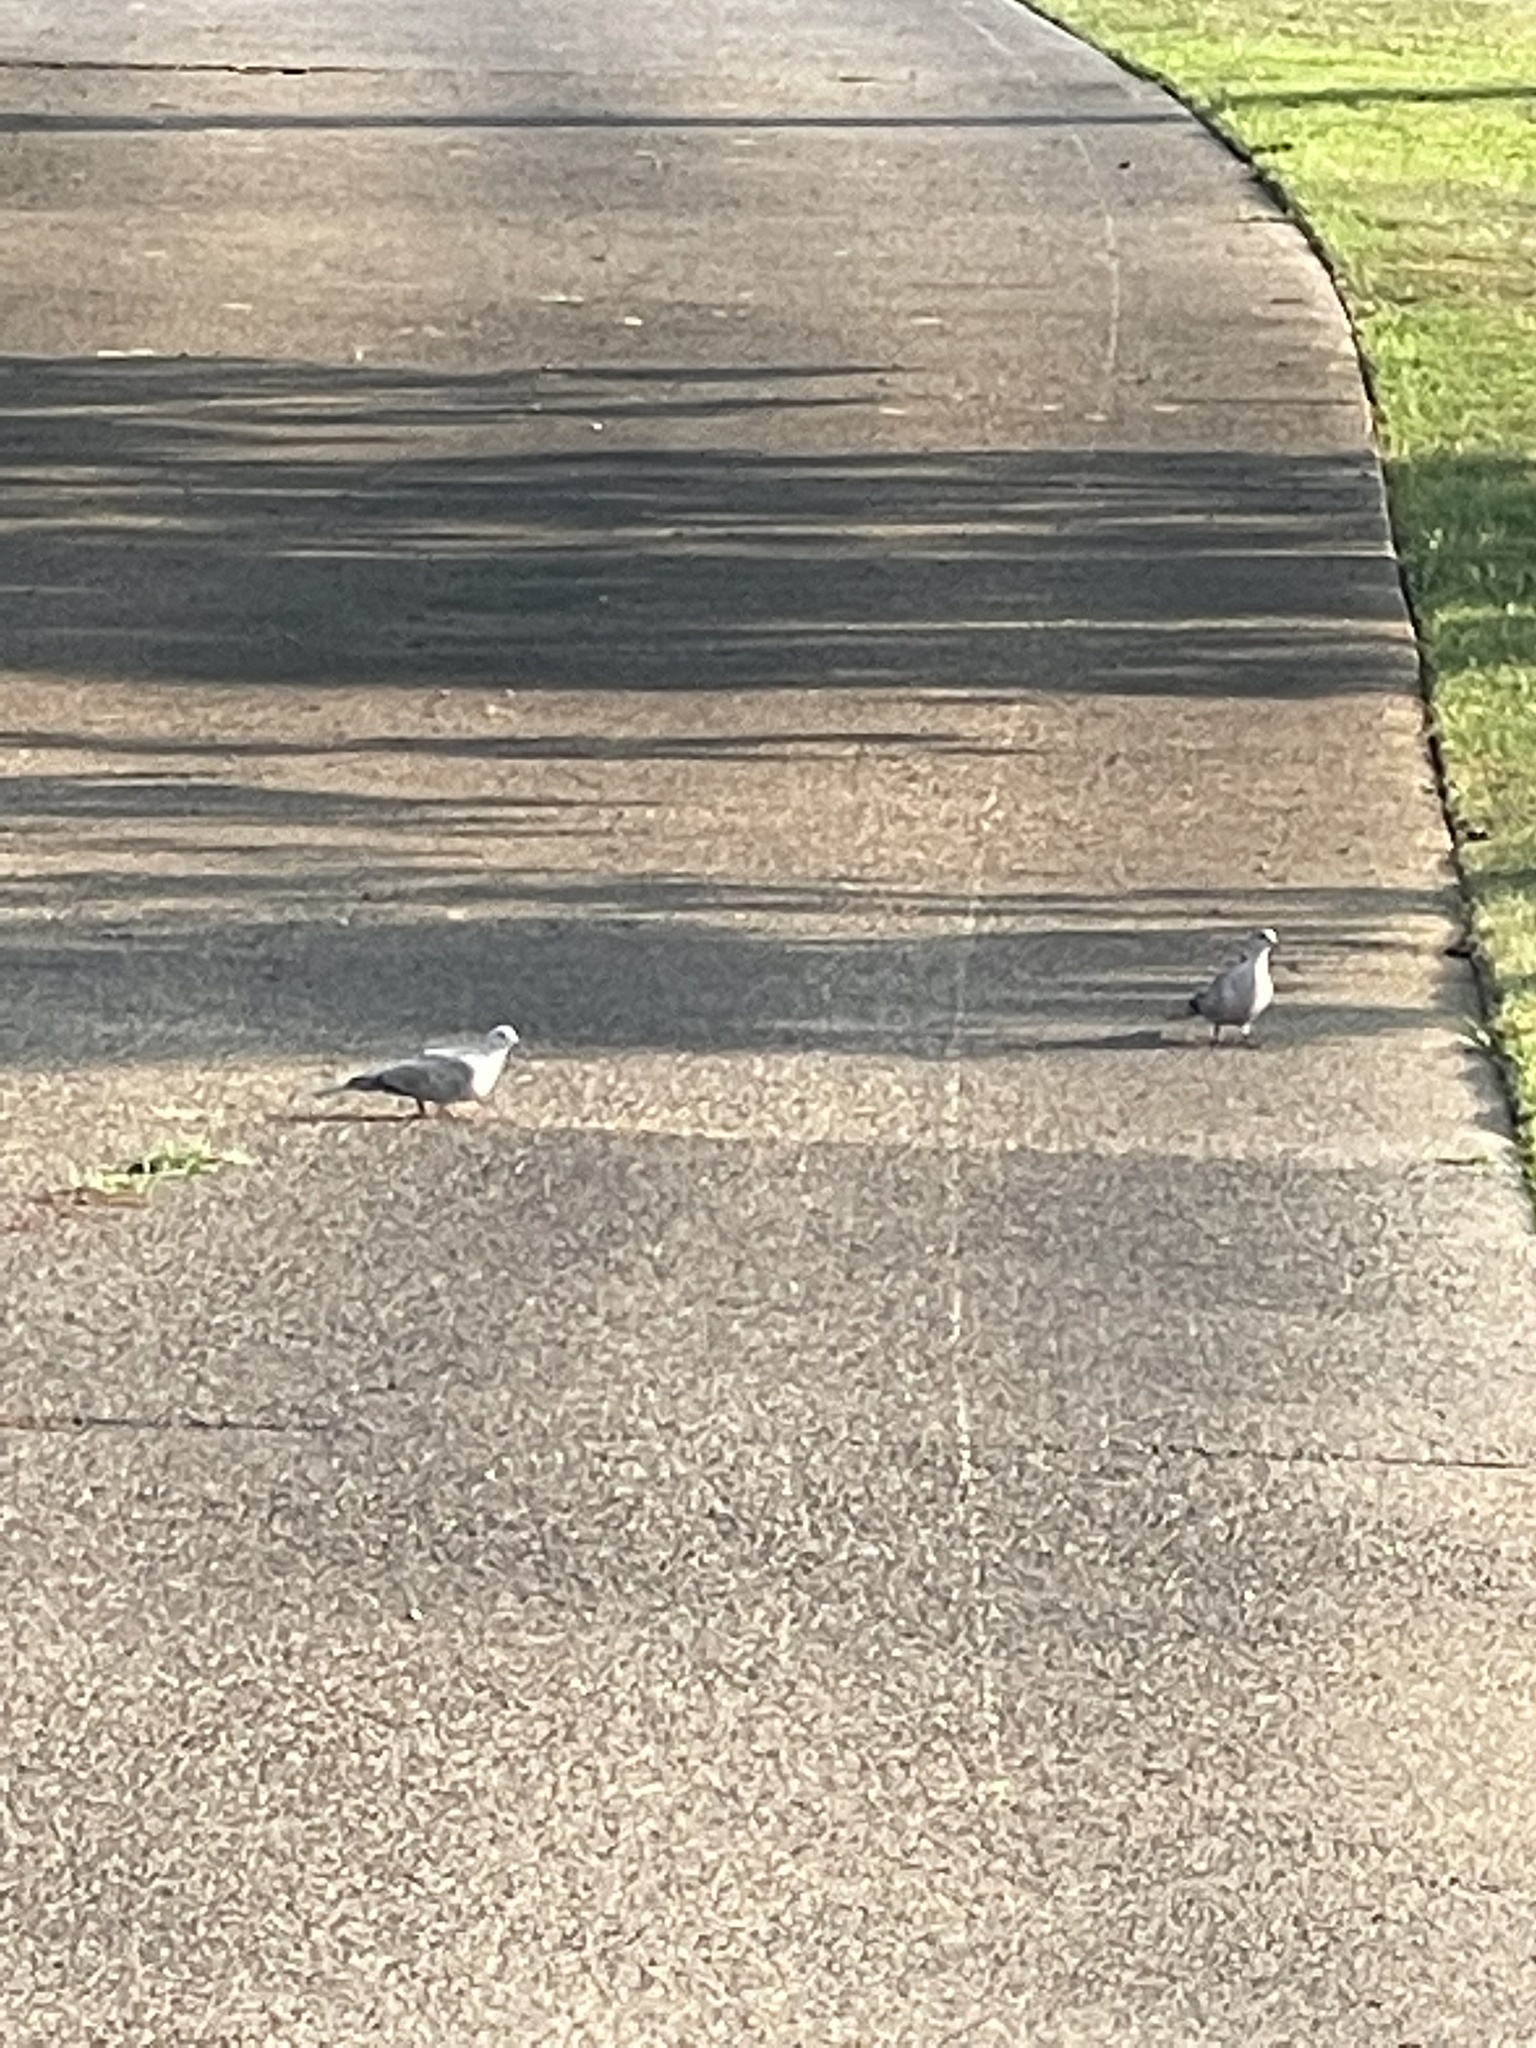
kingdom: Animalia
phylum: Chordata
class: Aves
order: Columbiformes
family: Columbidae
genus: Streptopelia
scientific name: Streptopelia decaocto
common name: Eurasian collared dove
